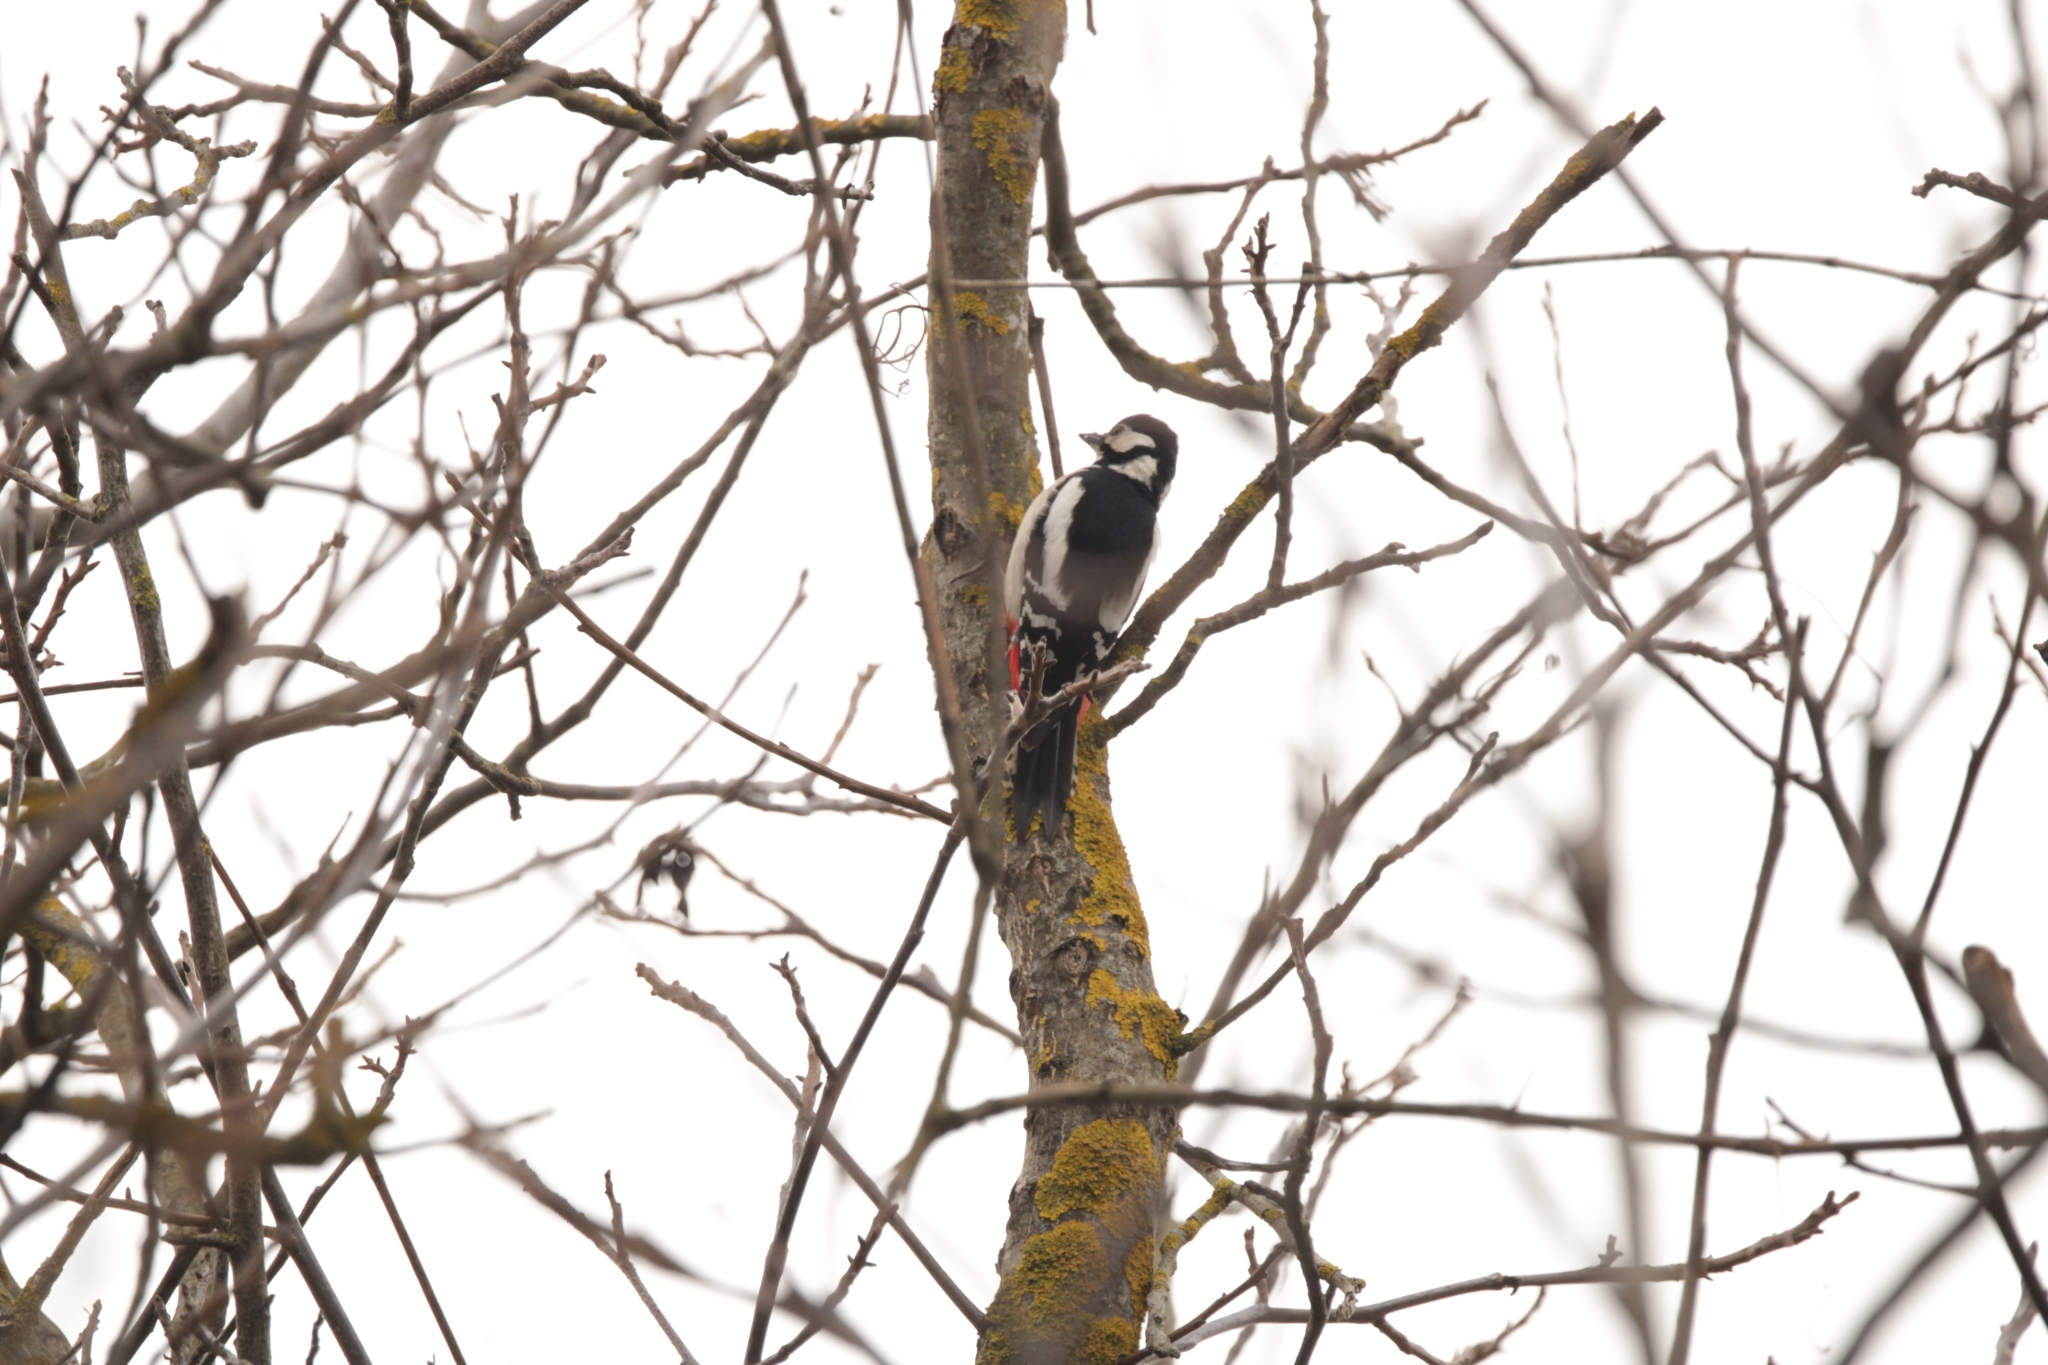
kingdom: Animalia
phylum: Chordata
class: Aves
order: Piciformes
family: Picidae
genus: Dendrocopos
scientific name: Dendrocopos major
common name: Great spotted woodpecker
